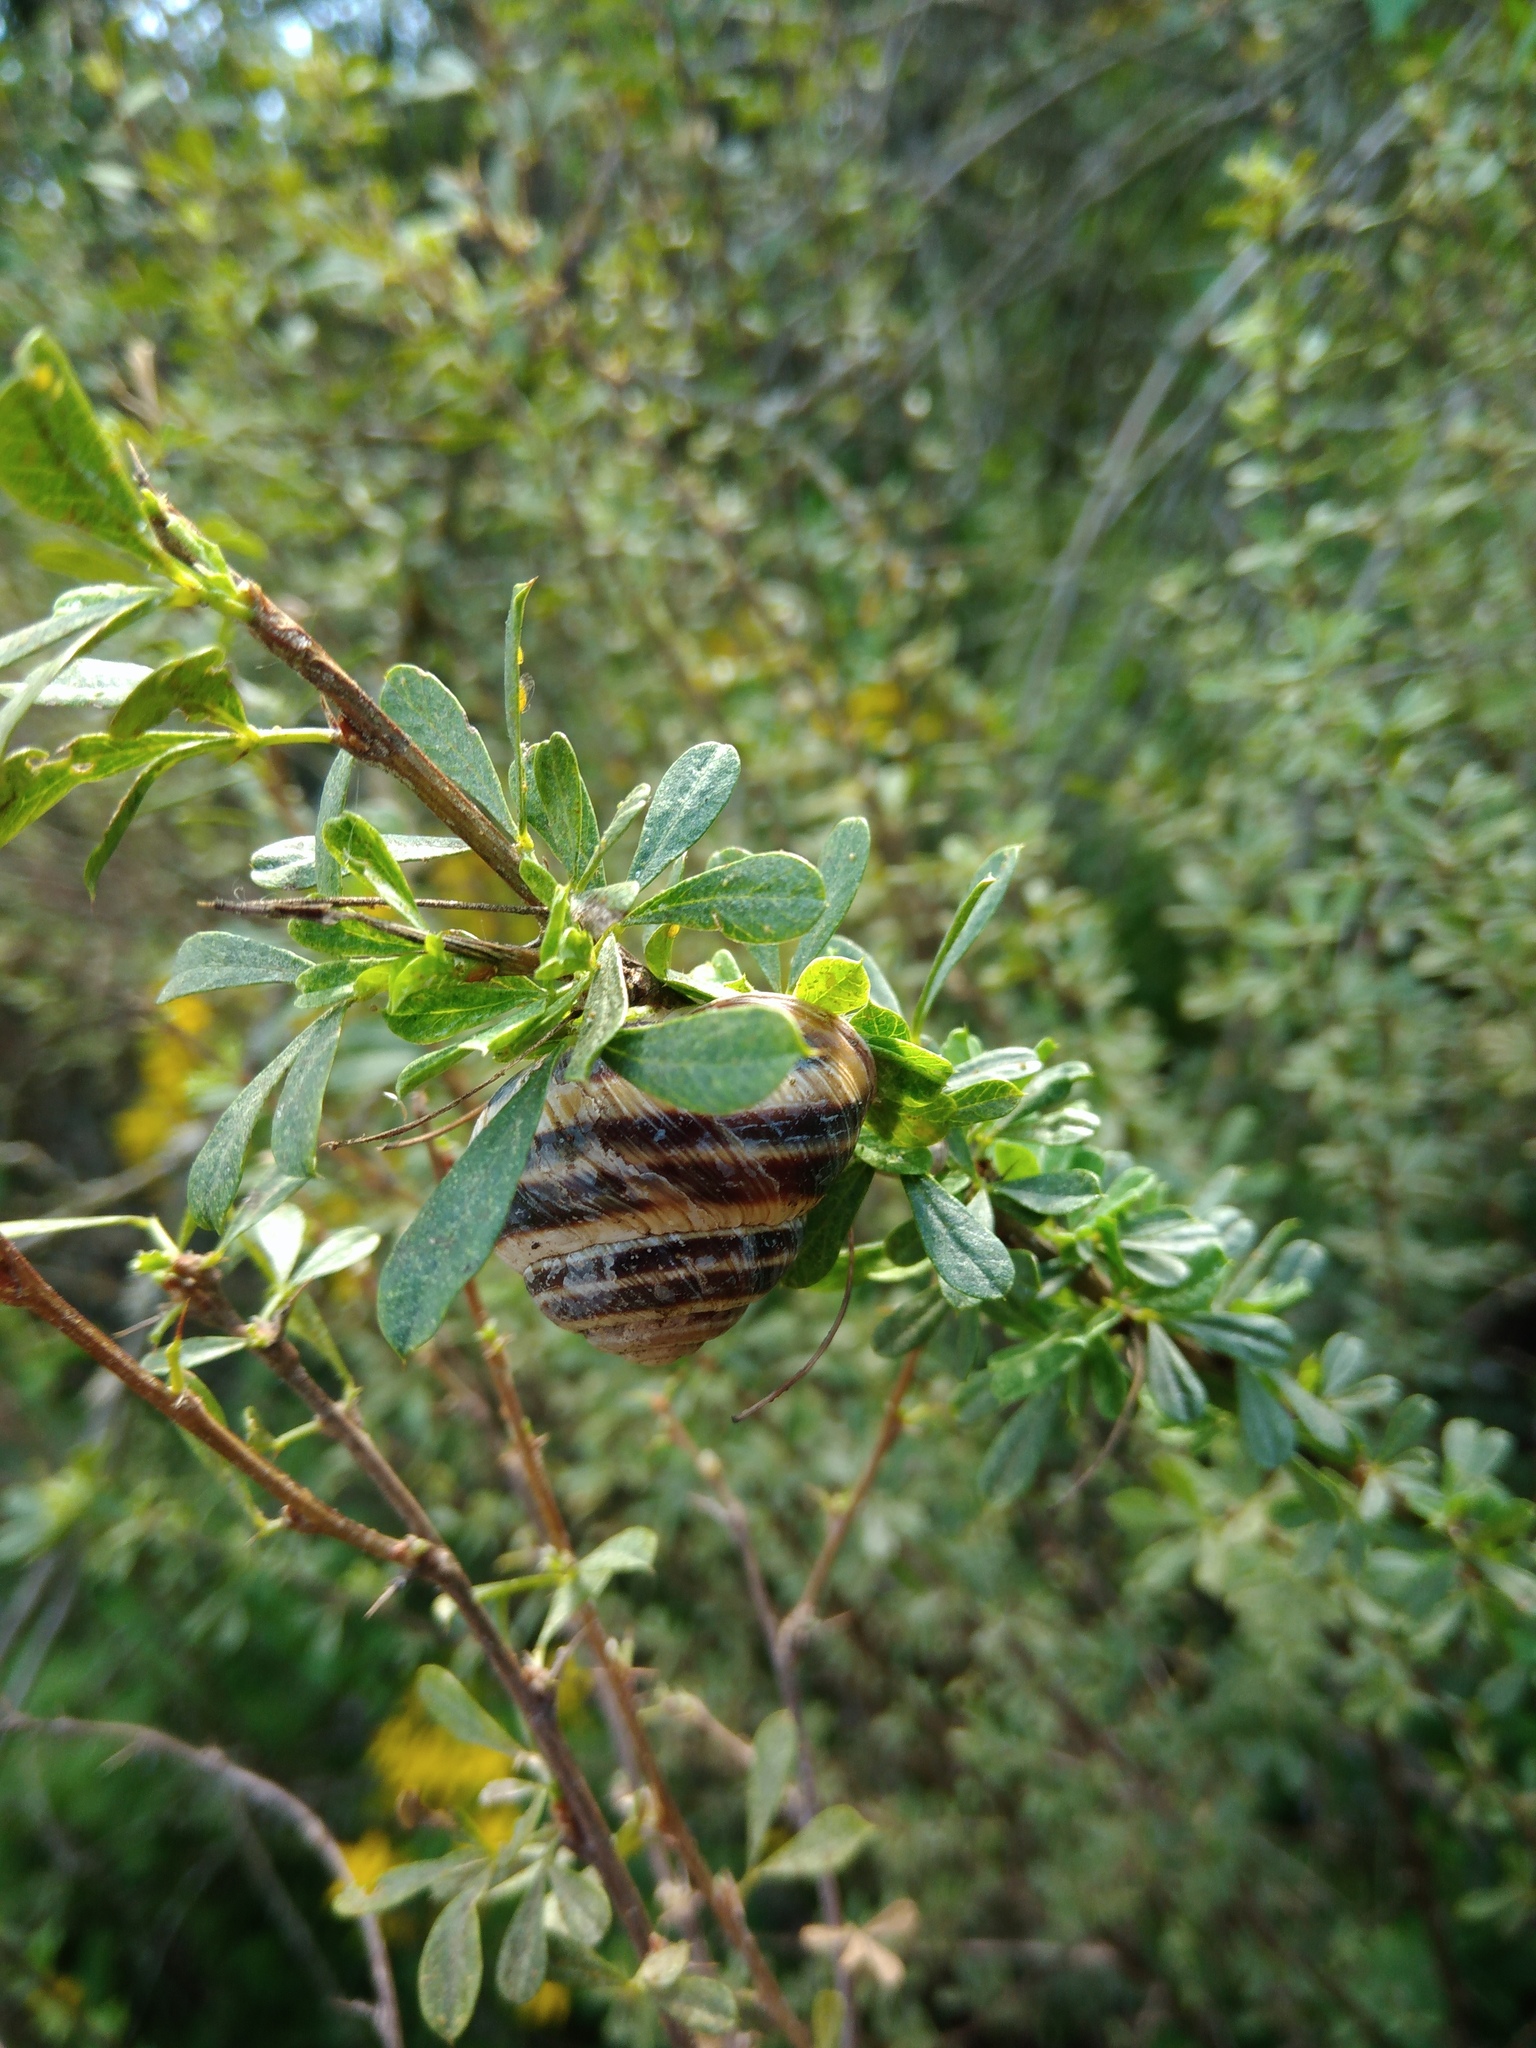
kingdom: Animalia
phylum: Mollusca
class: Gastropoda
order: Stylommatophora
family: Helicidae
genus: Caucasotachea
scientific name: Caucasotachea vindobonensis
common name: European helicid land snail
